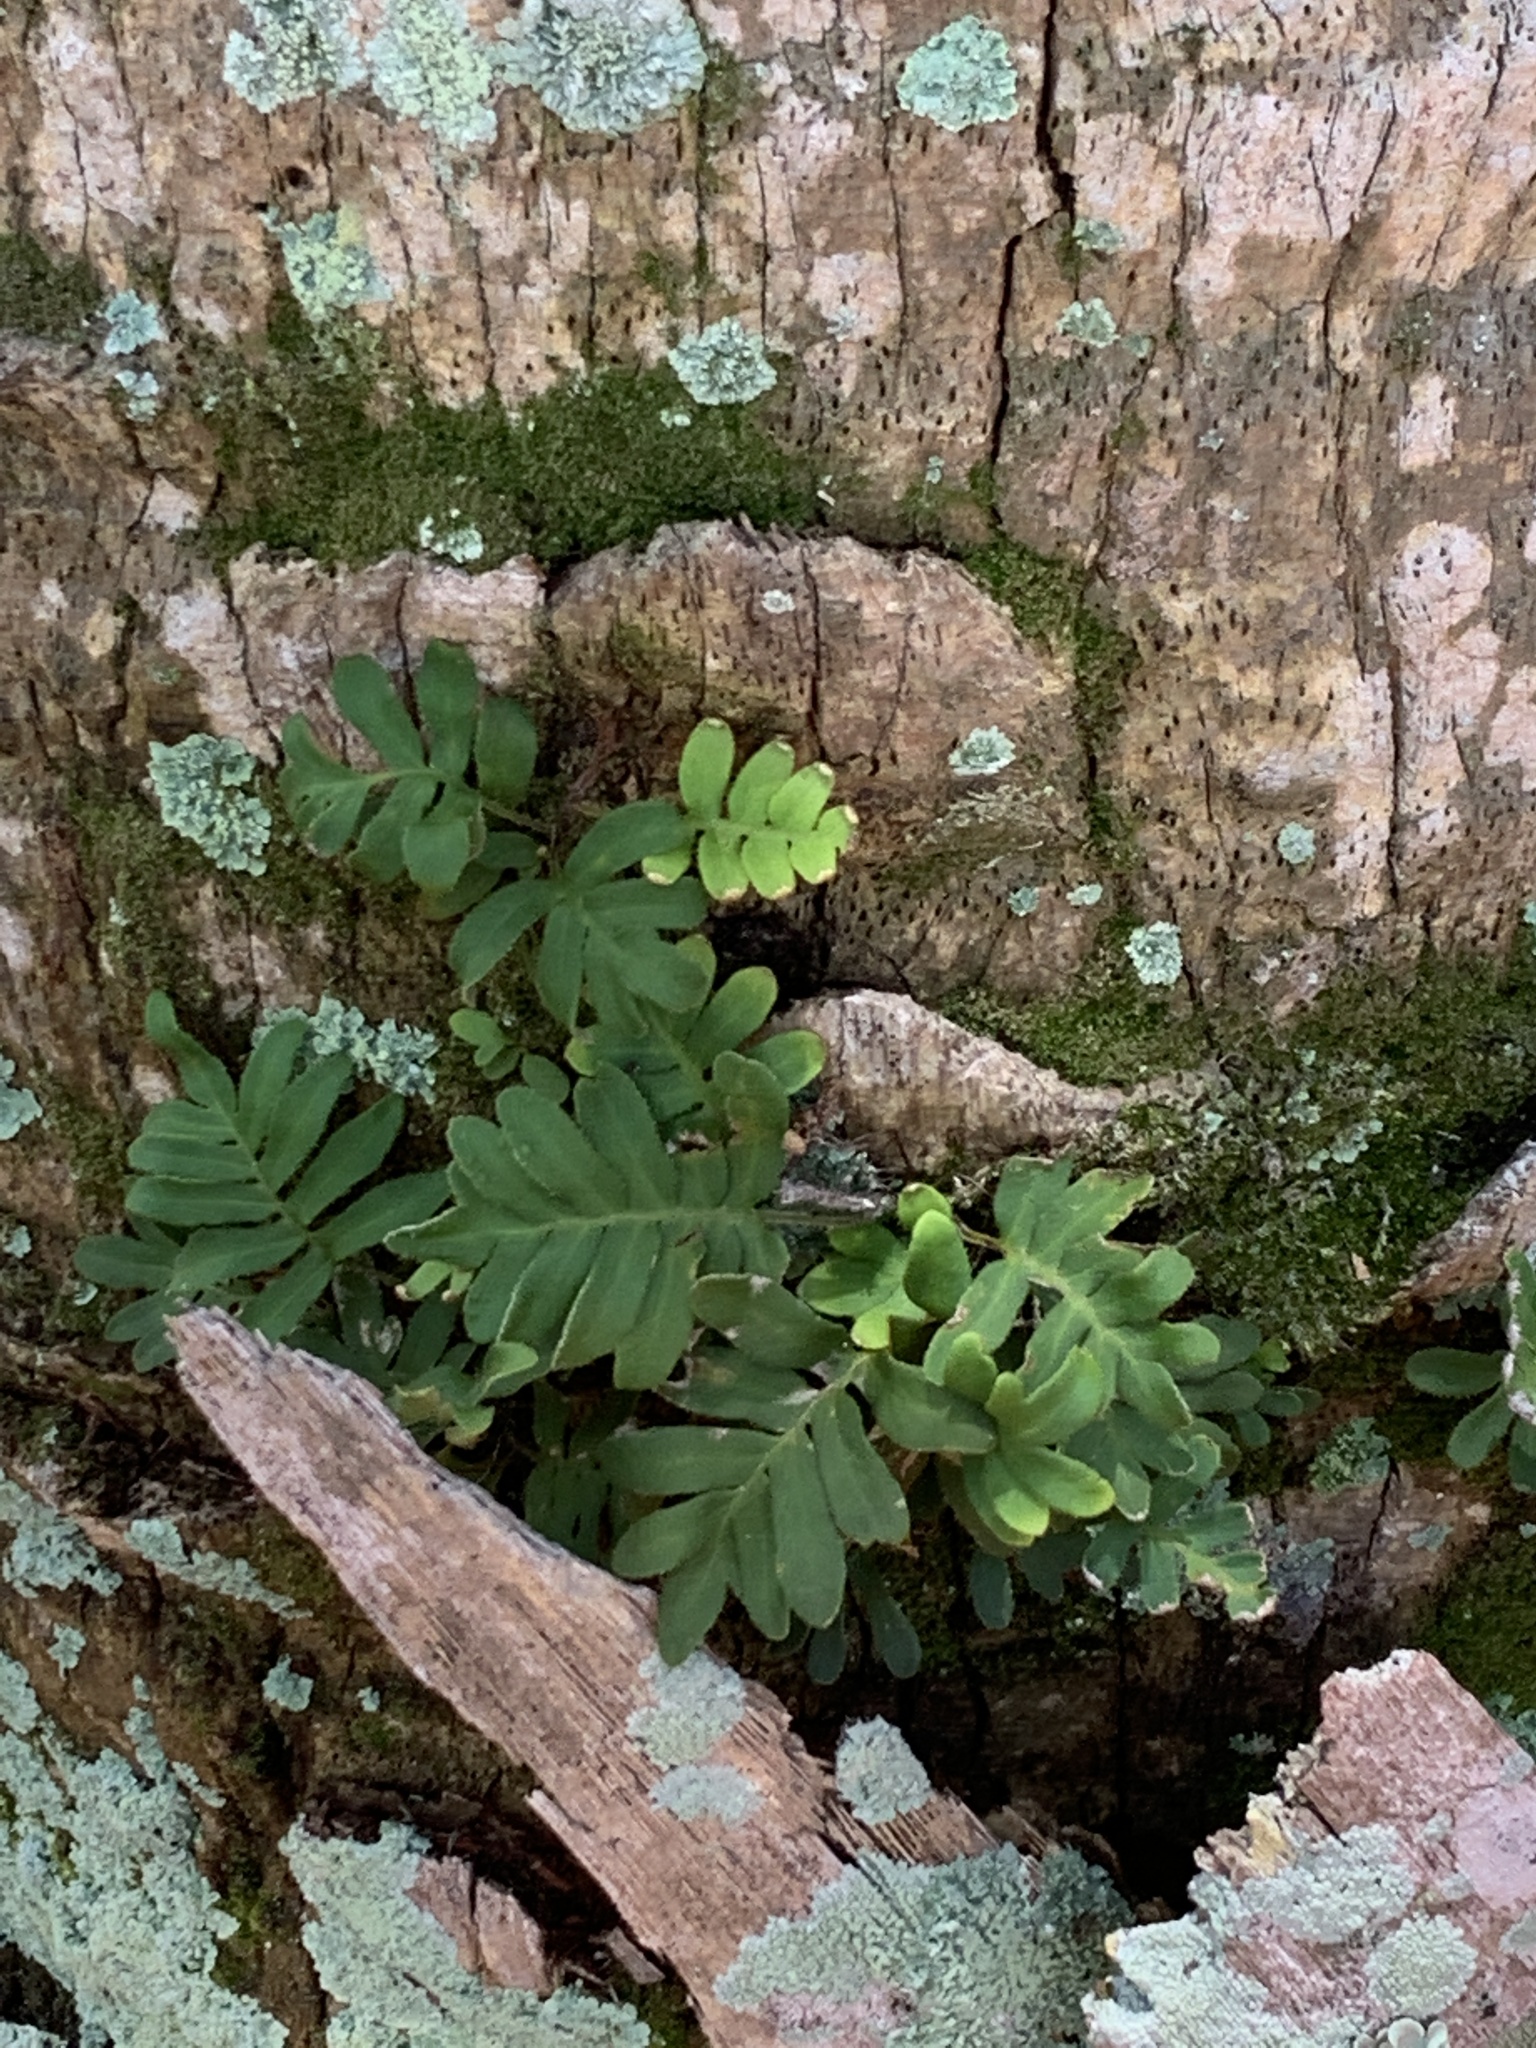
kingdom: Plantae
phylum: Tracheophyta
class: Polypodiopsida
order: Polypodiales
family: Polypodiaceae
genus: Pleopeltis
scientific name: Pleopeltis michauxiana
